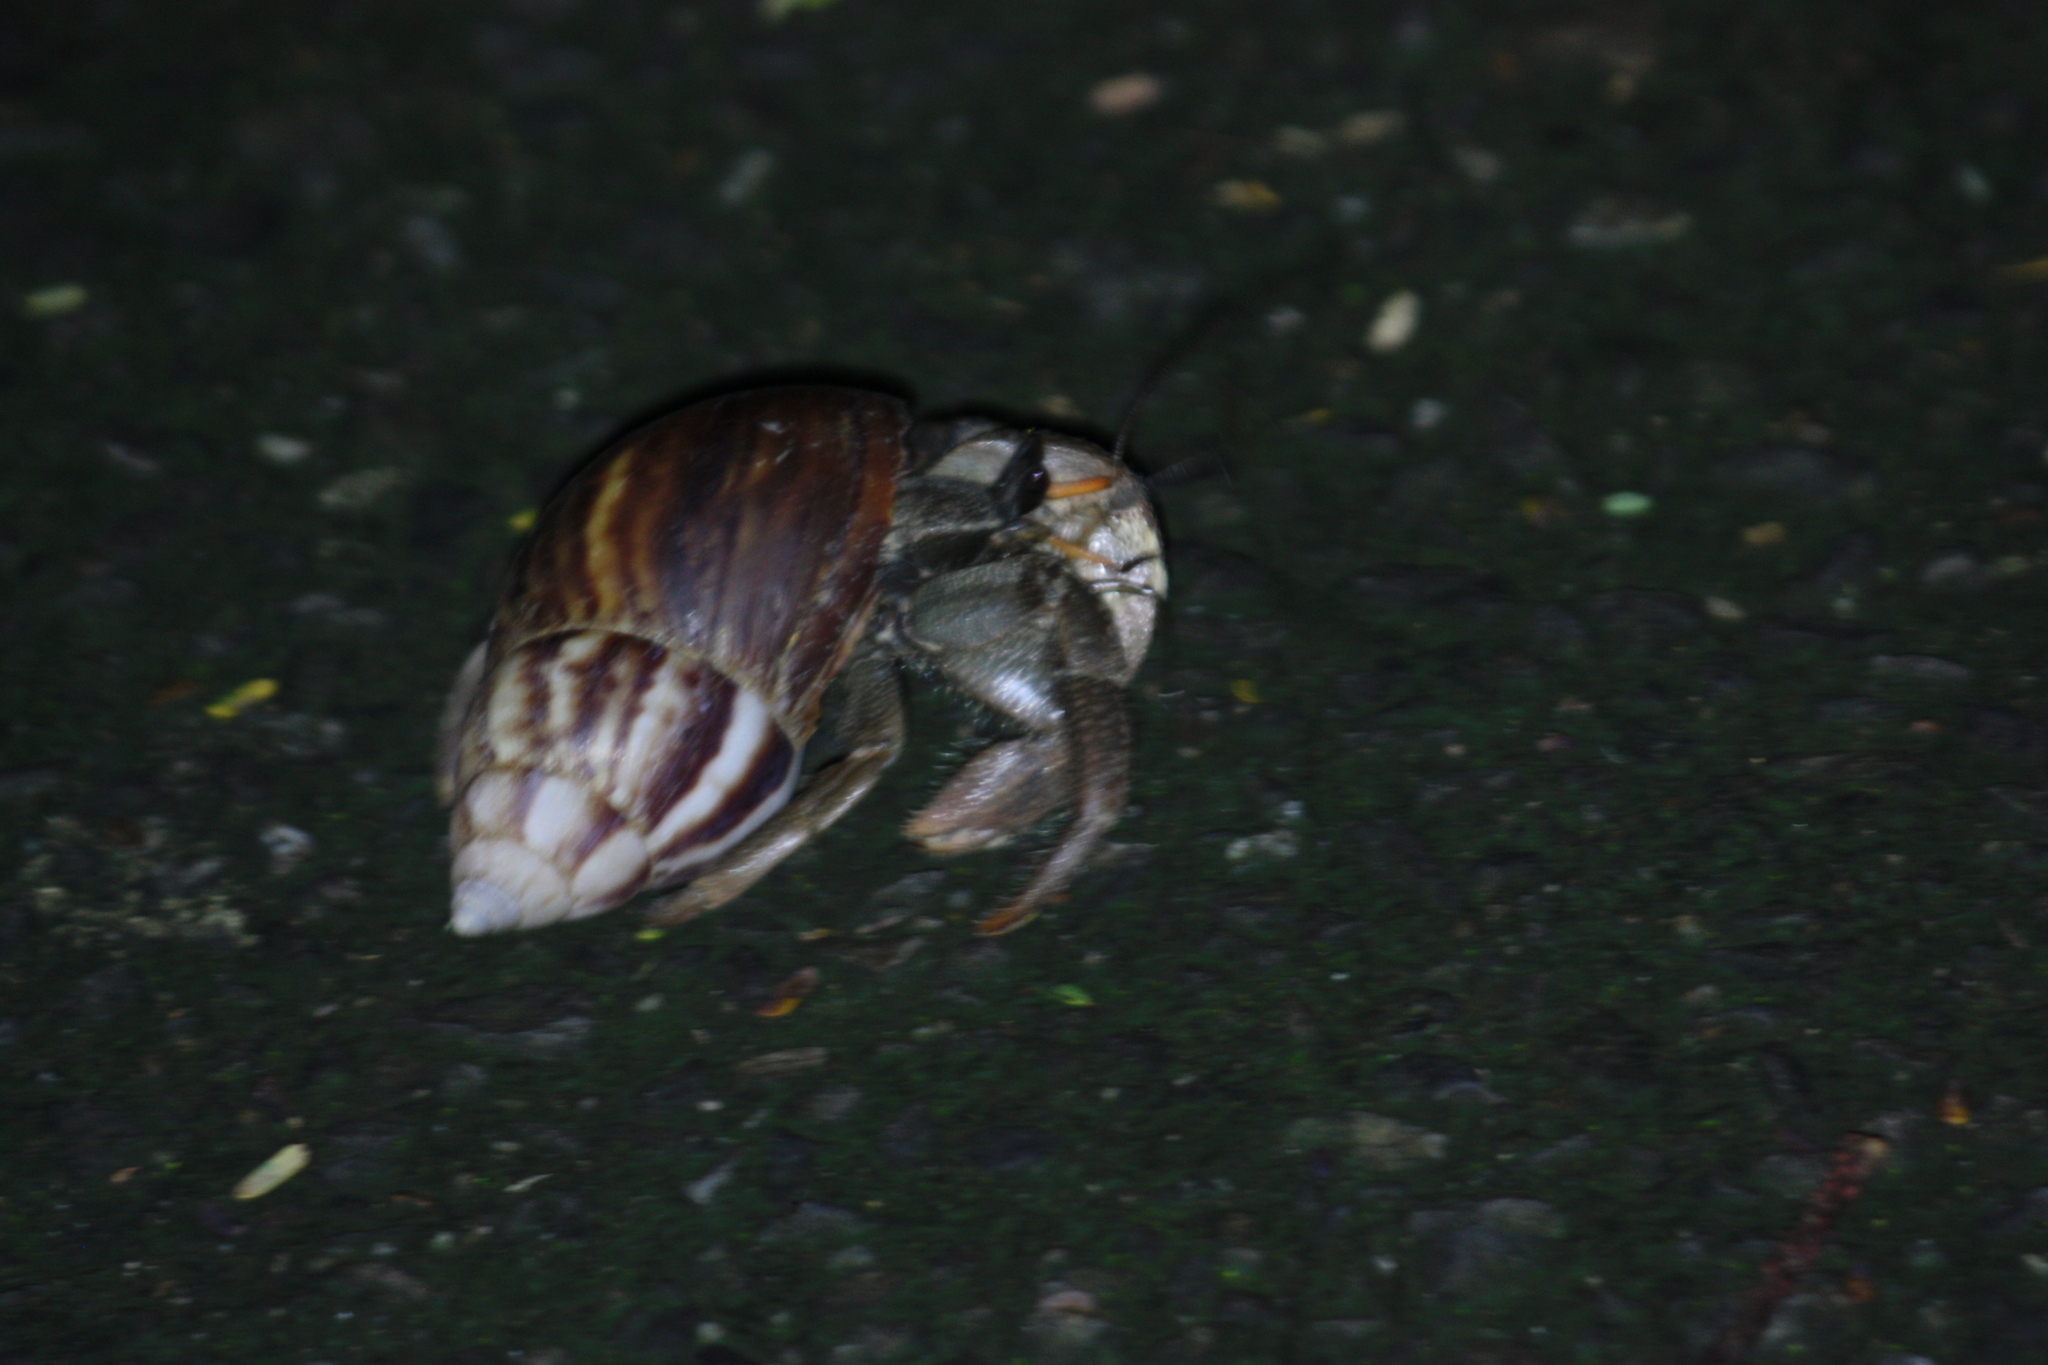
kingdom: Animalia
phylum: Arthropoda
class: Malacostraca
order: Decapoda
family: Coenobitidae
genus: Coenobita
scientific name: Coenobita cavipes
